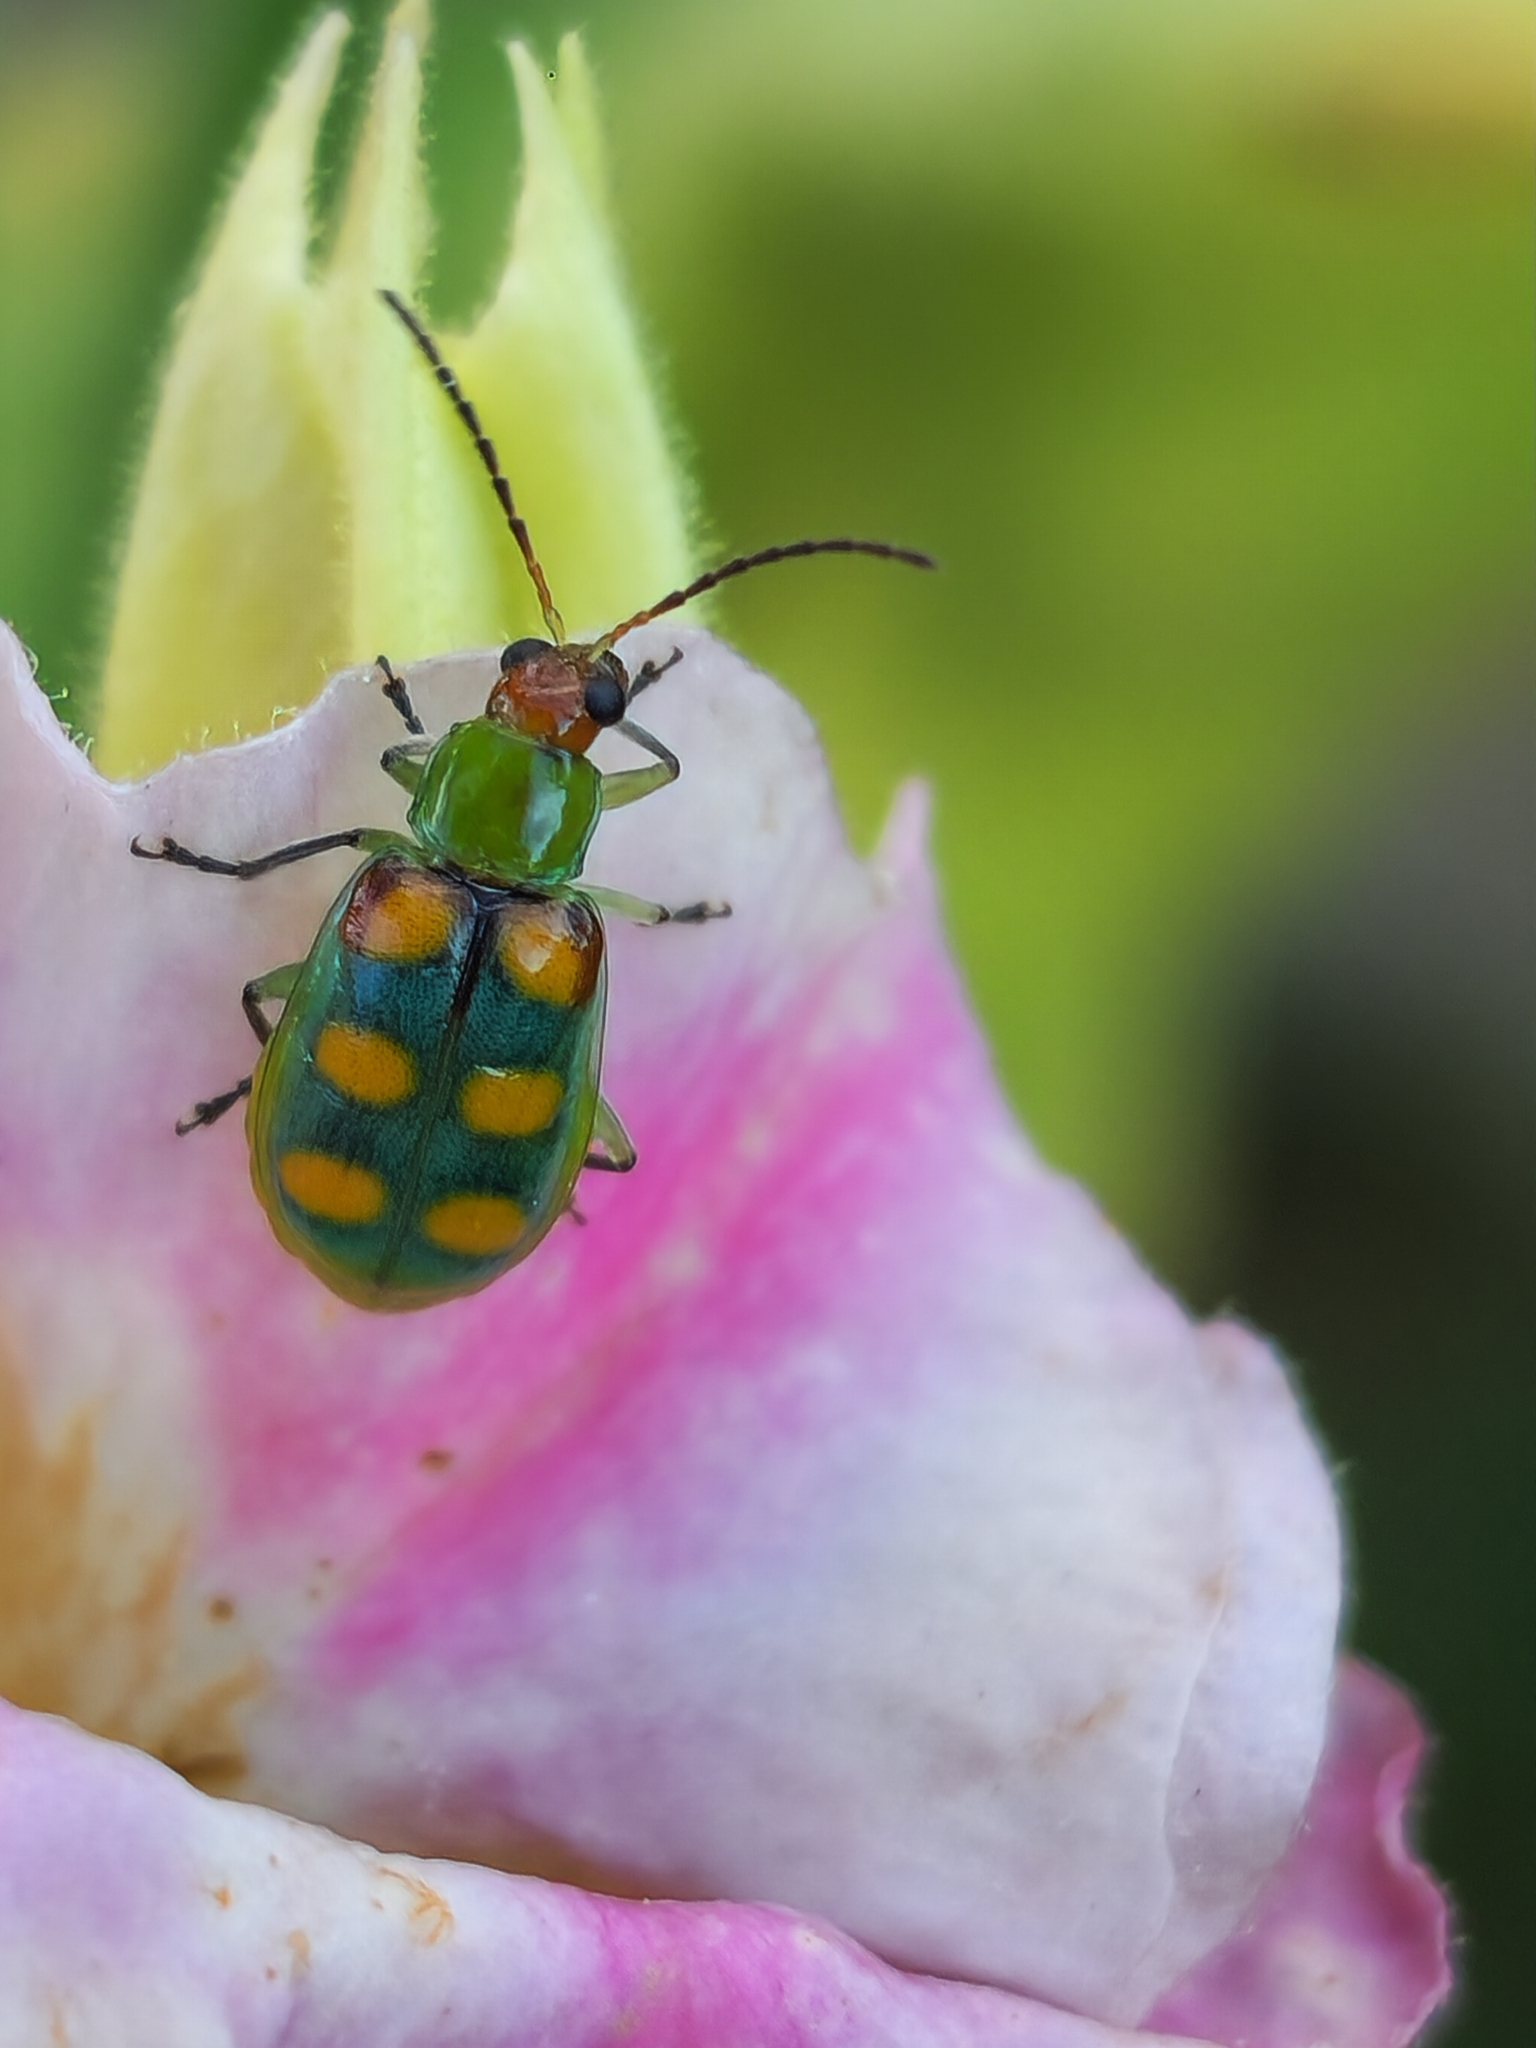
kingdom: Animalia
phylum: Arthropoda
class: Insecta
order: Coleoptera
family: Chrysomelidae
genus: Diabrotica
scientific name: Diabrotica speciosa
